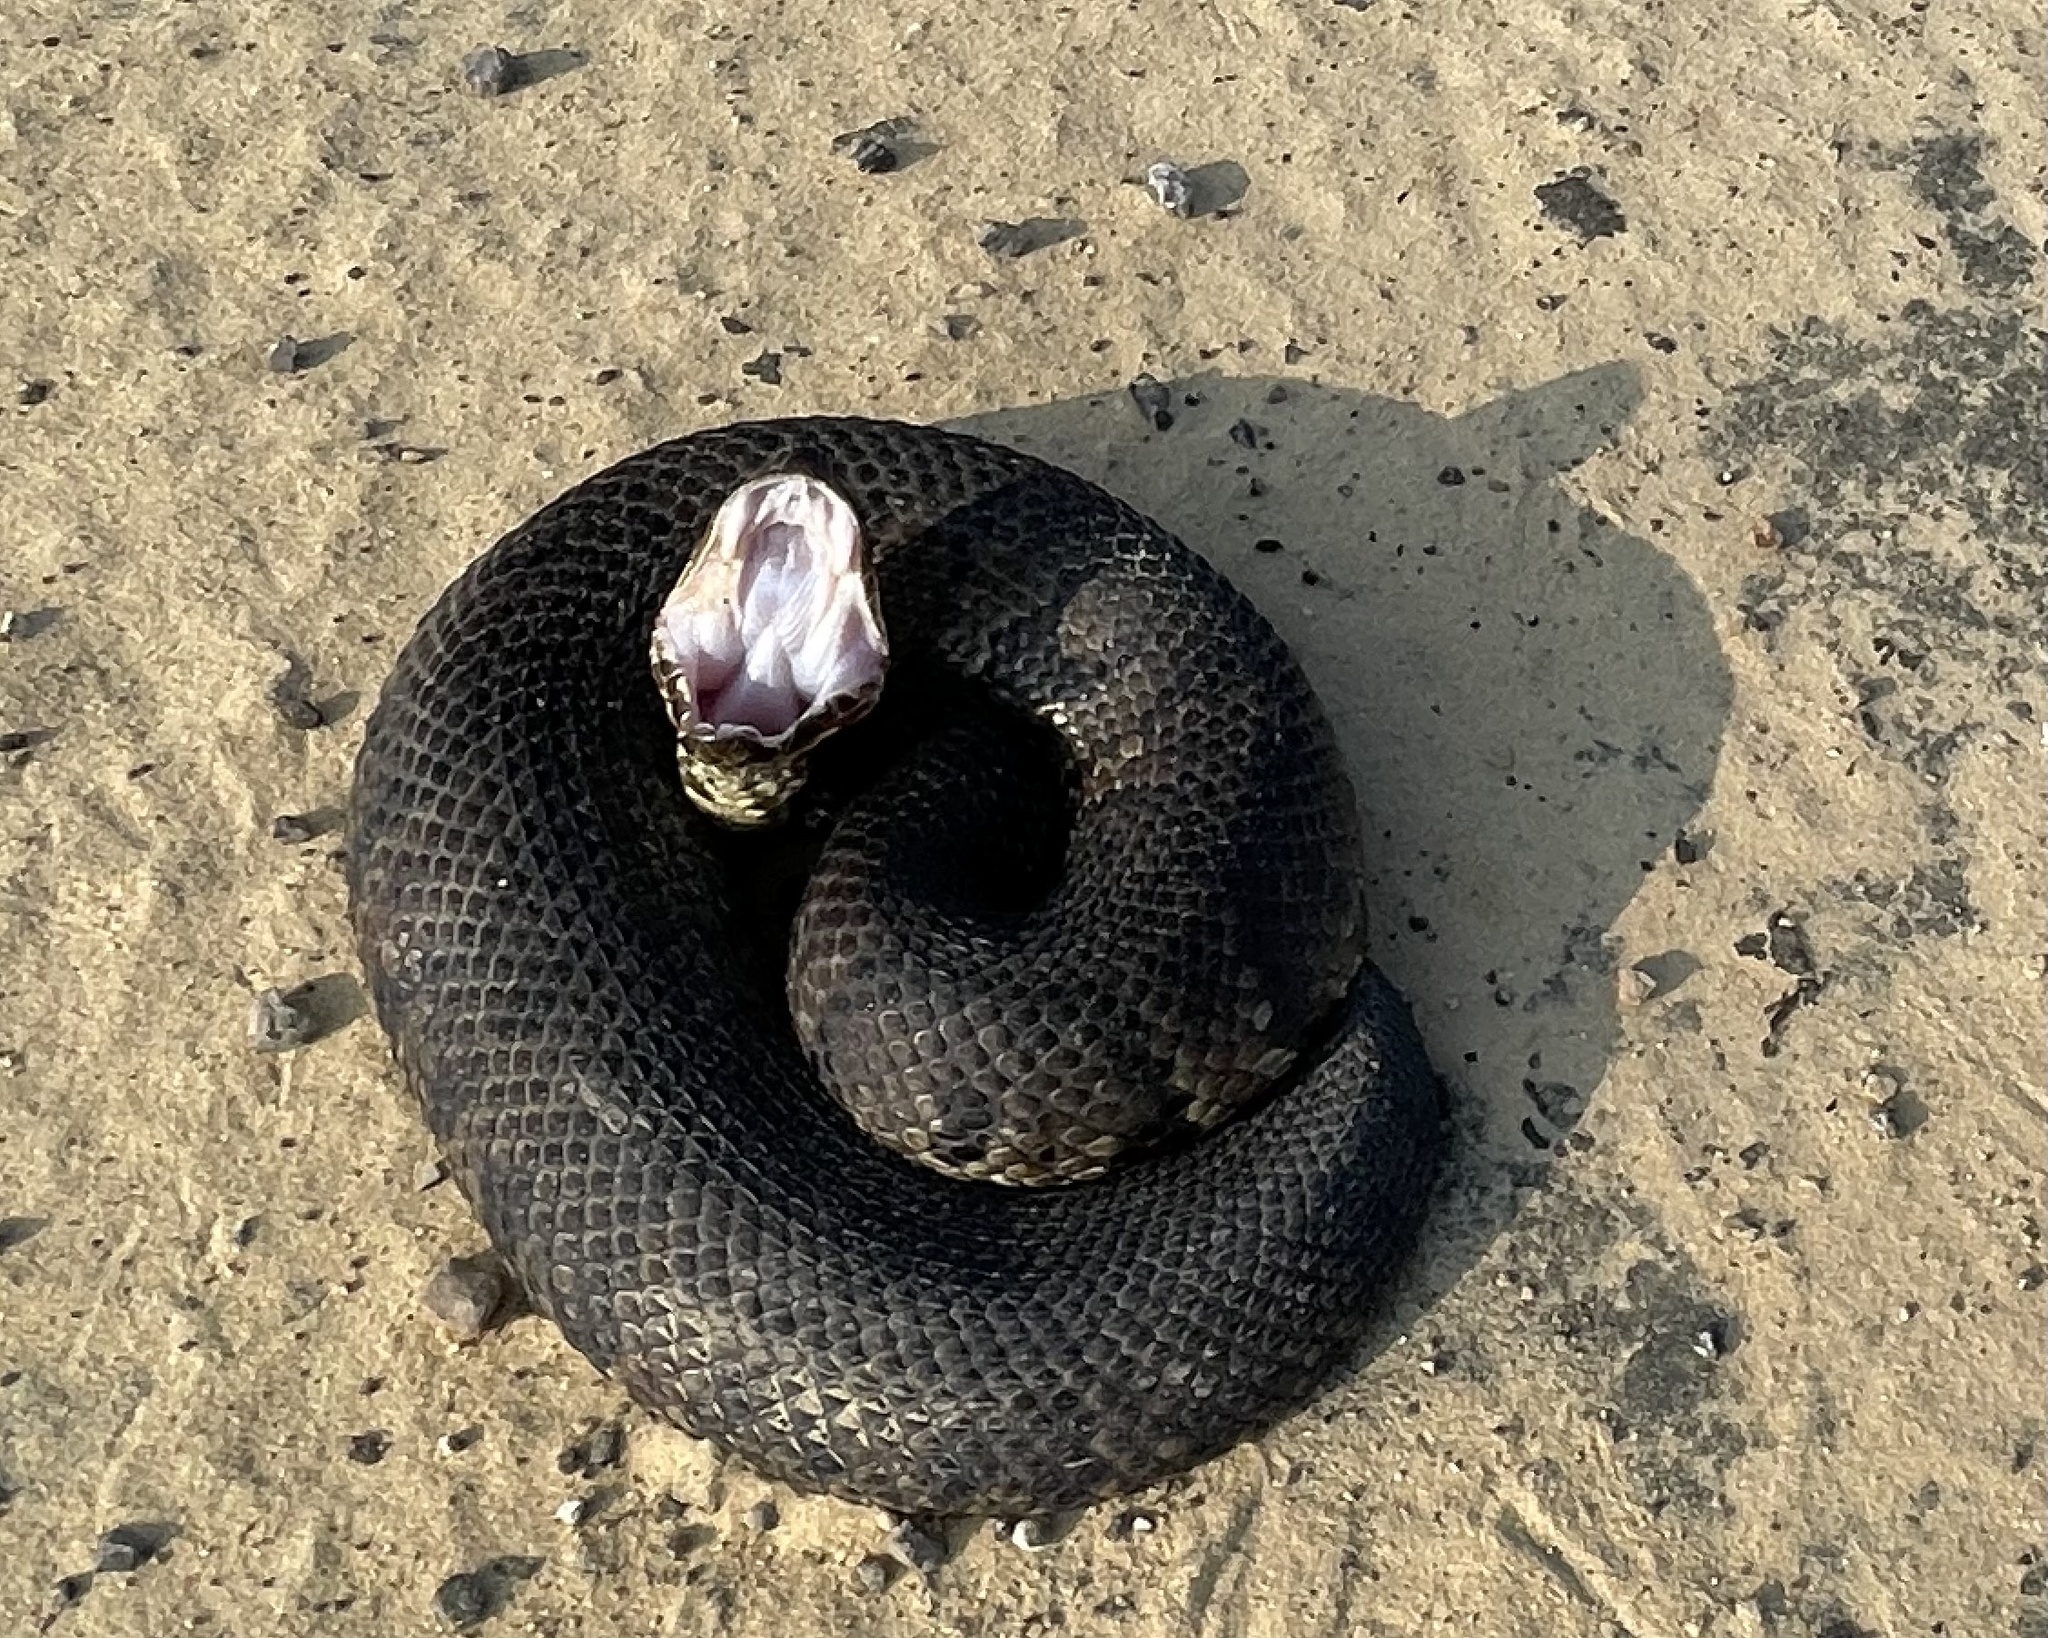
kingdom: Animalia
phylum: Chordata
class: Squamata
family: Viperidae
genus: Agkistrodon
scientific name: Agkistrodon piscivorus
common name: Cottonmouth
